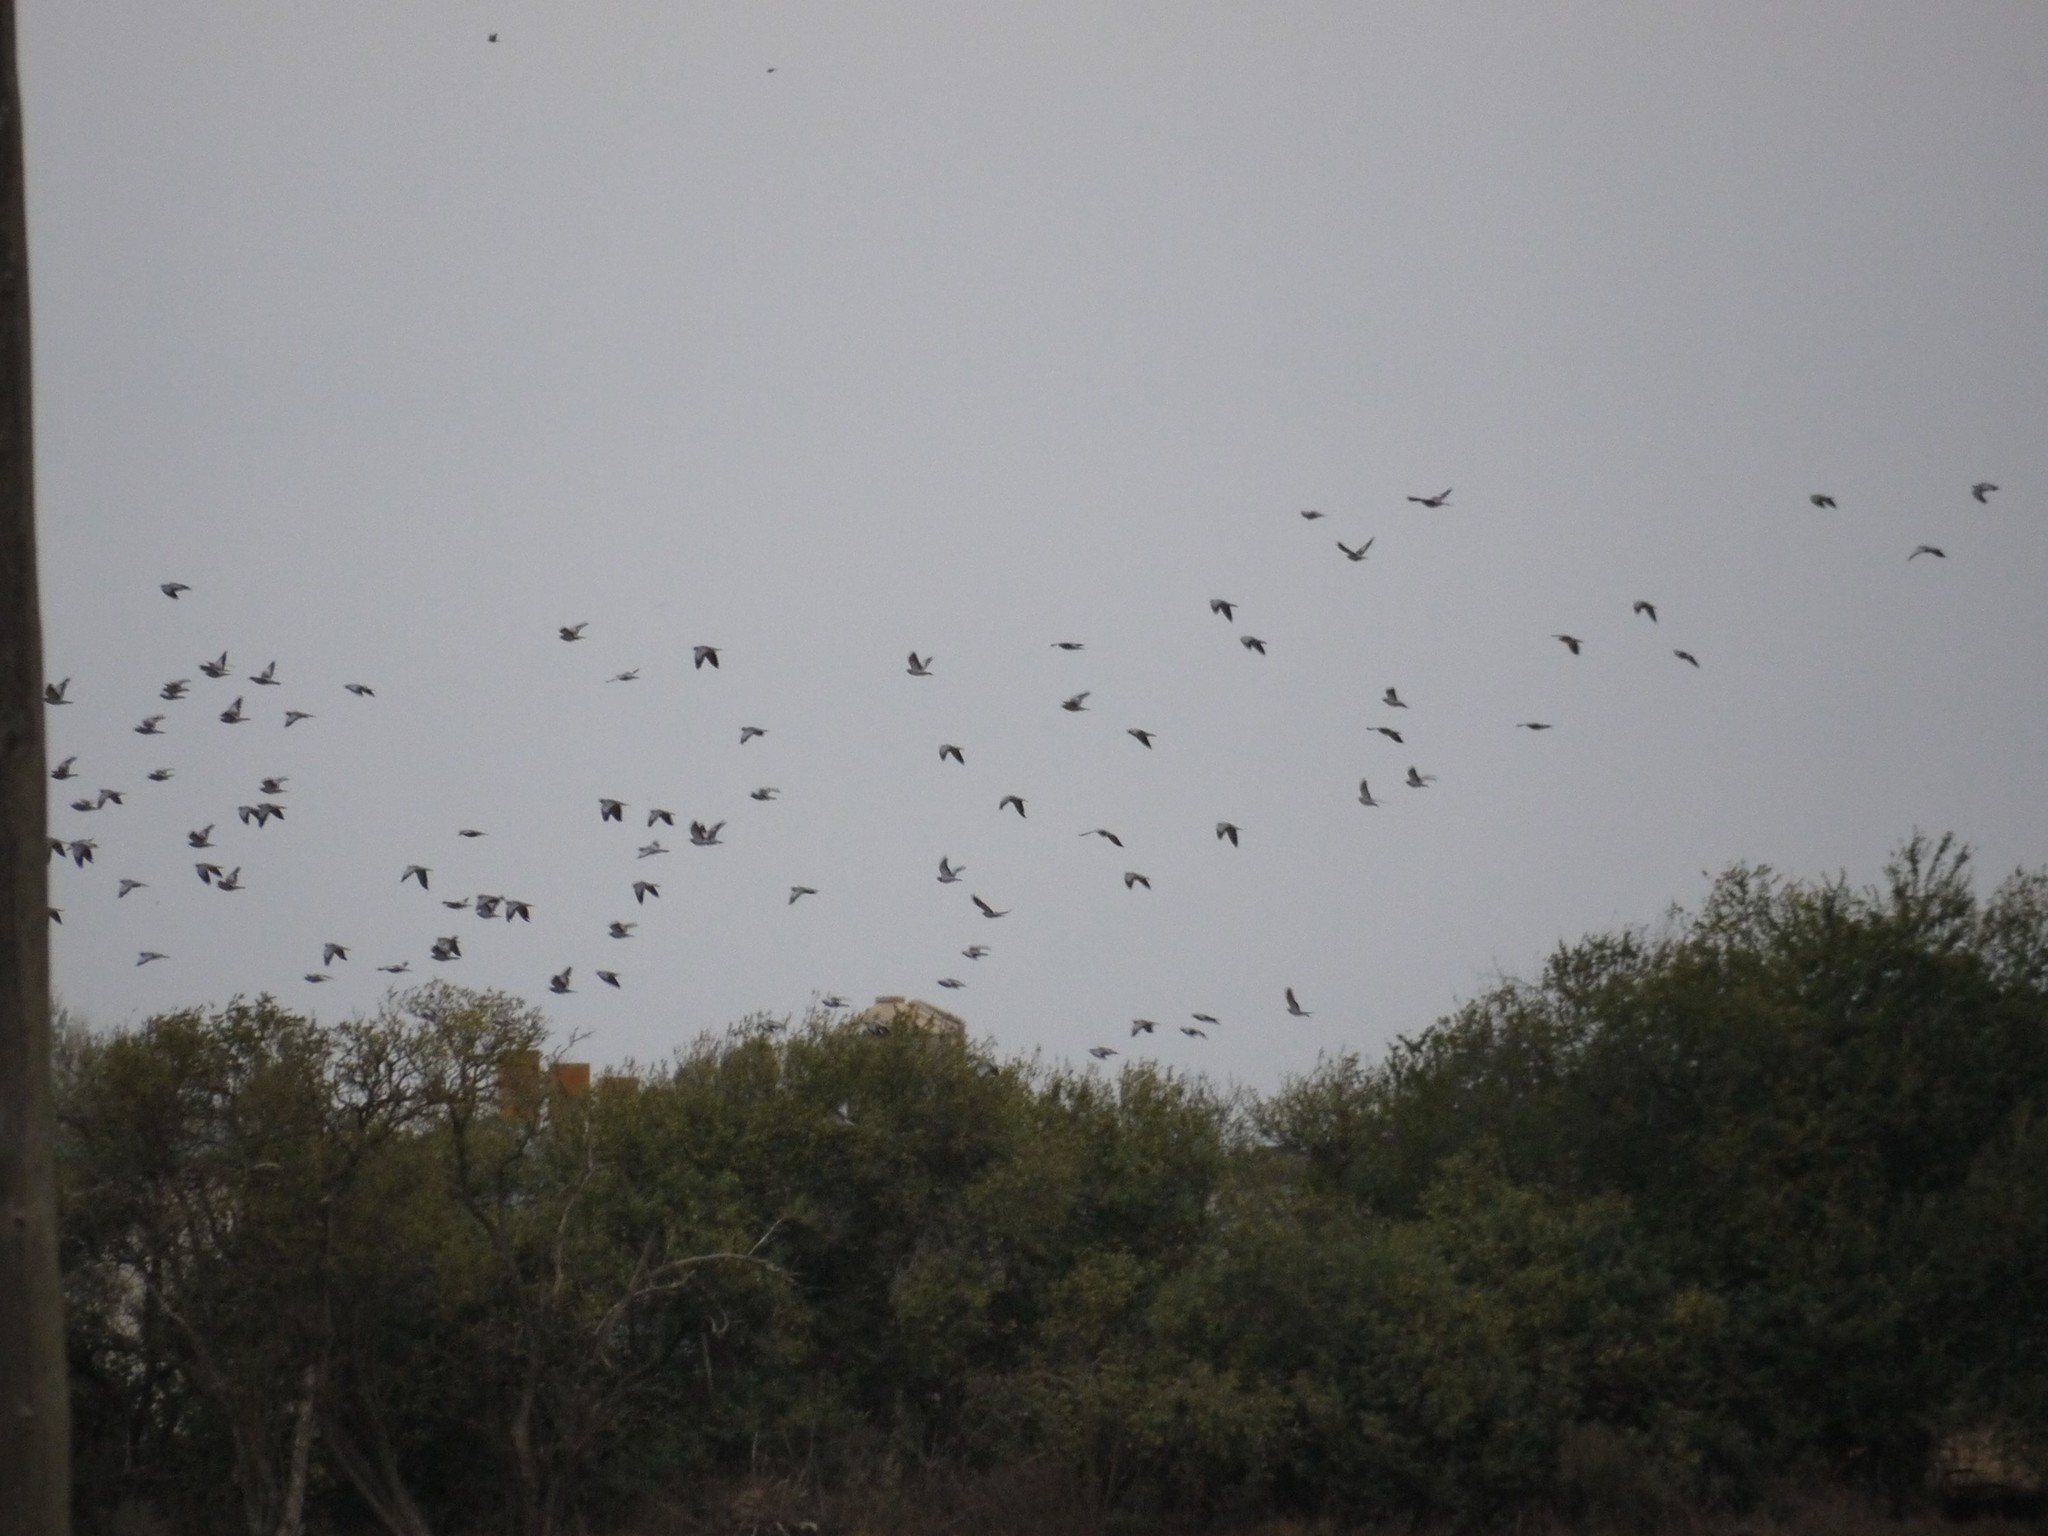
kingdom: Animalia
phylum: Chordata
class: Aves
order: Columbiformes
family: Columbidae
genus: Columba
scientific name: Columba oenas
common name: Stock dove
